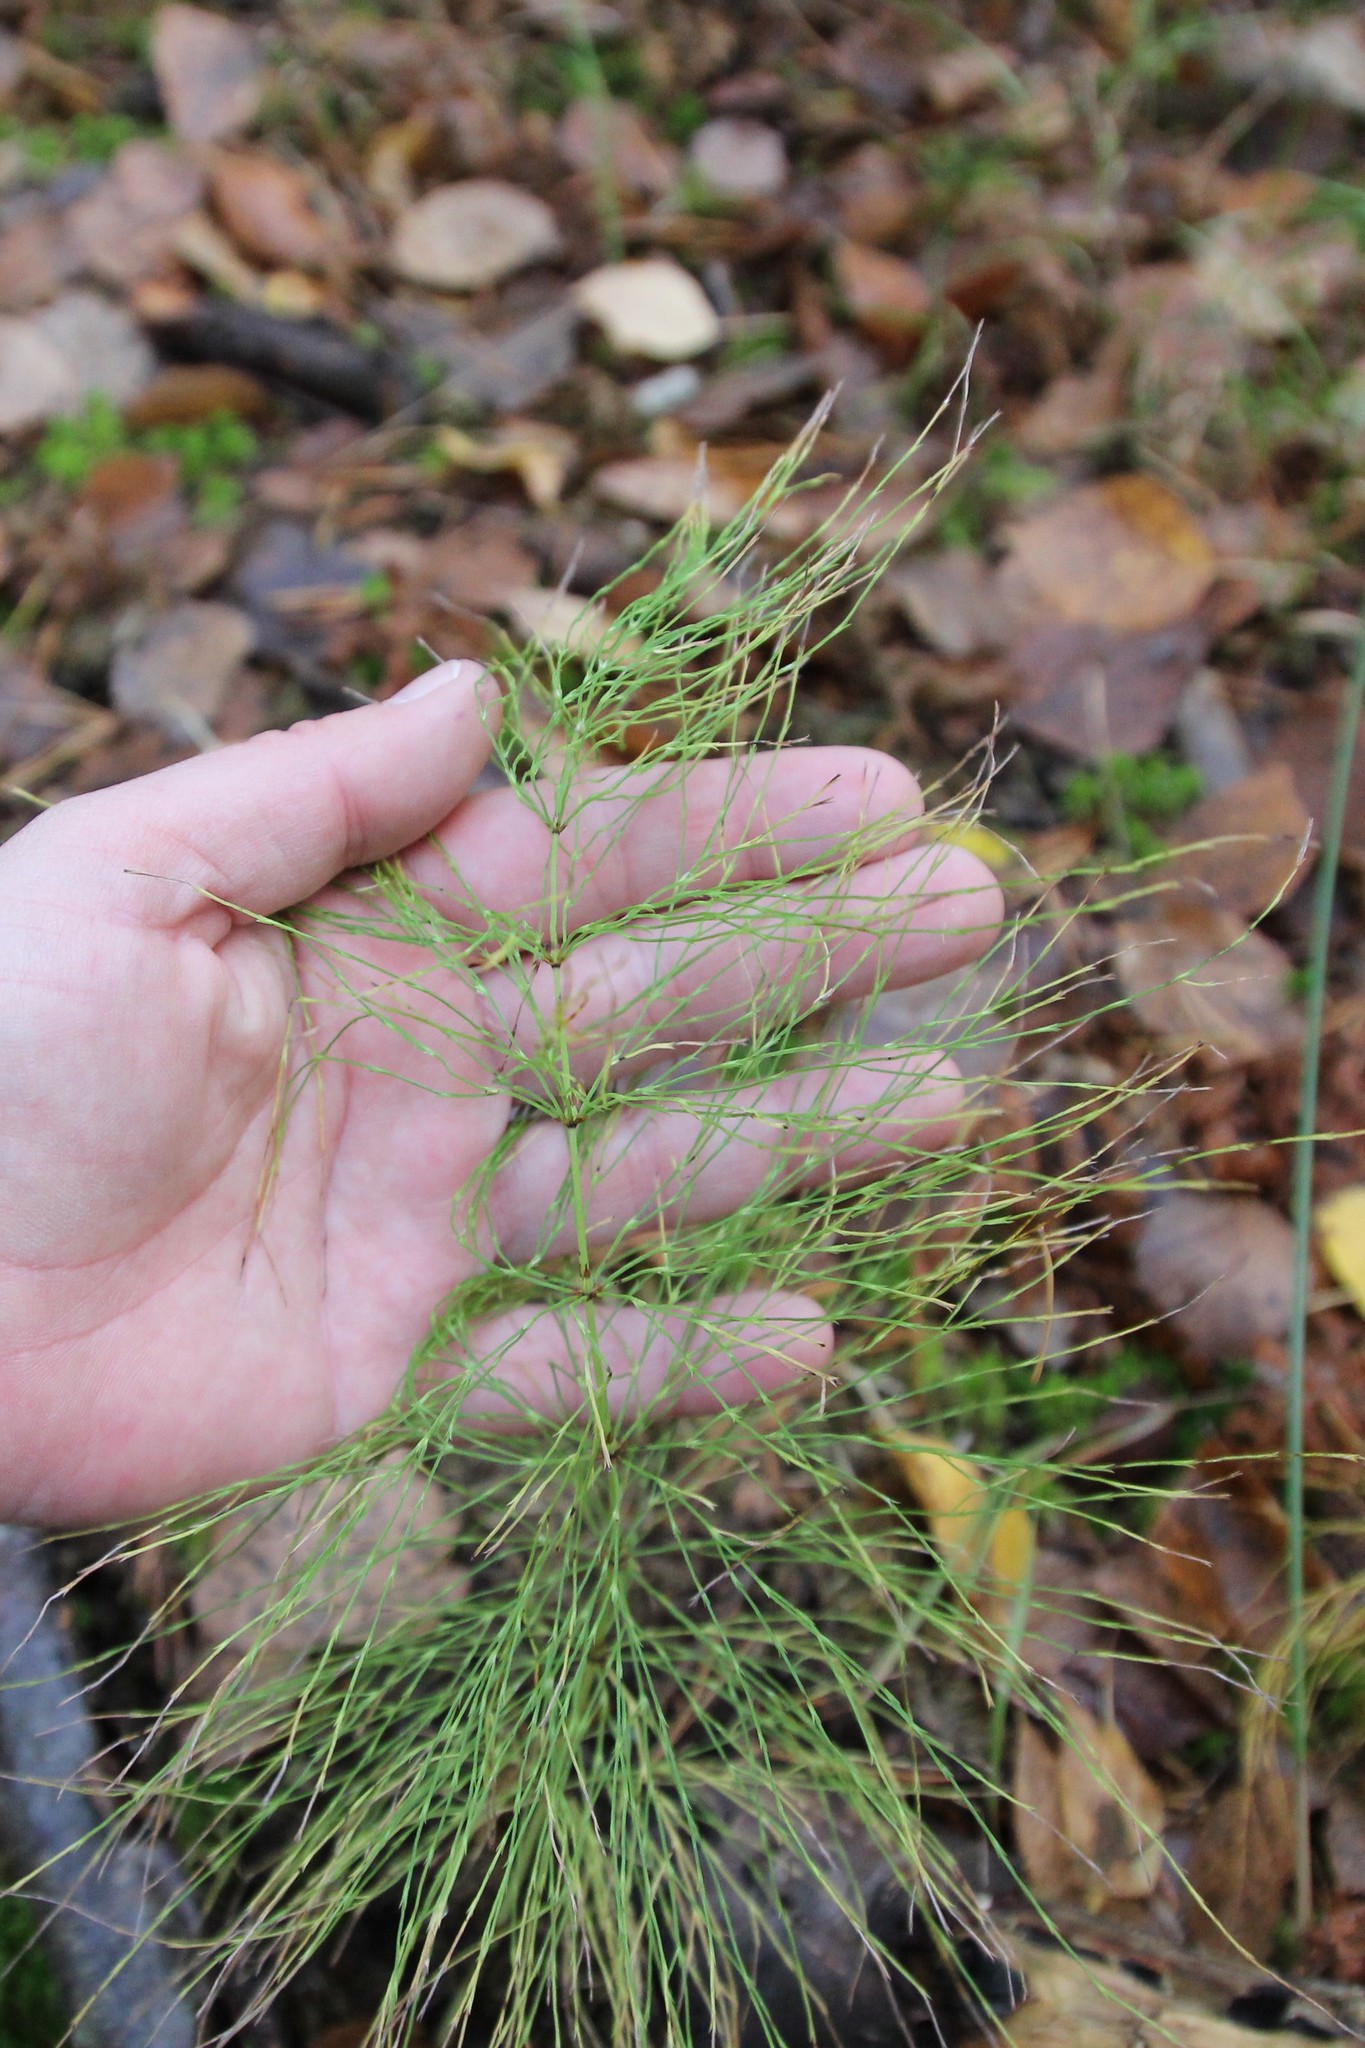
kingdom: Plantae
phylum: Tracheophyta
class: Polypodiopsida
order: Equisetales
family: Equisetaceae
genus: Equisetum
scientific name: Equisetum sylvaticum
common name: Wood horsetail
